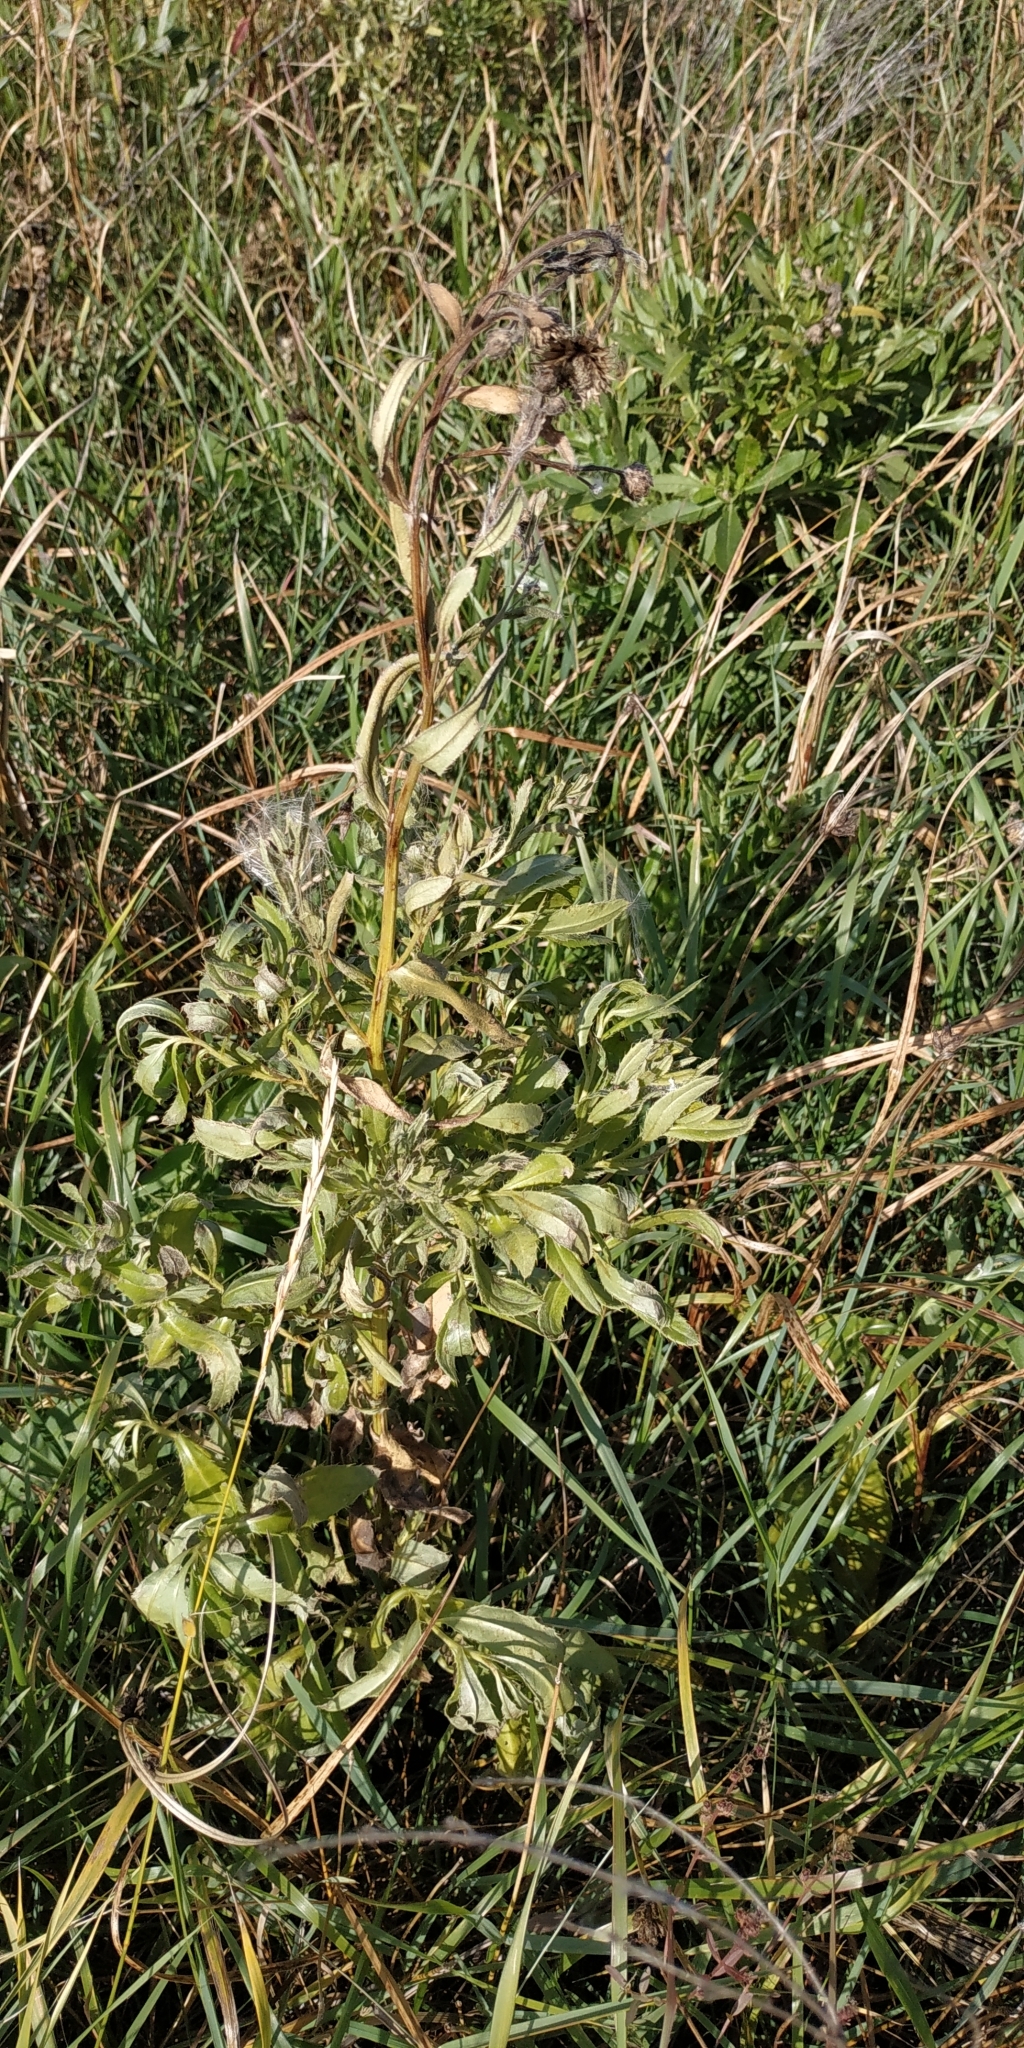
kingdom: Plantae
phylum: Tracheophyta
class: Magnoliopsida
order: Asterales
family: Asteraceae
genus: Cirsium
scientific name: Cirsium arvense
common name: Creeping thistle
